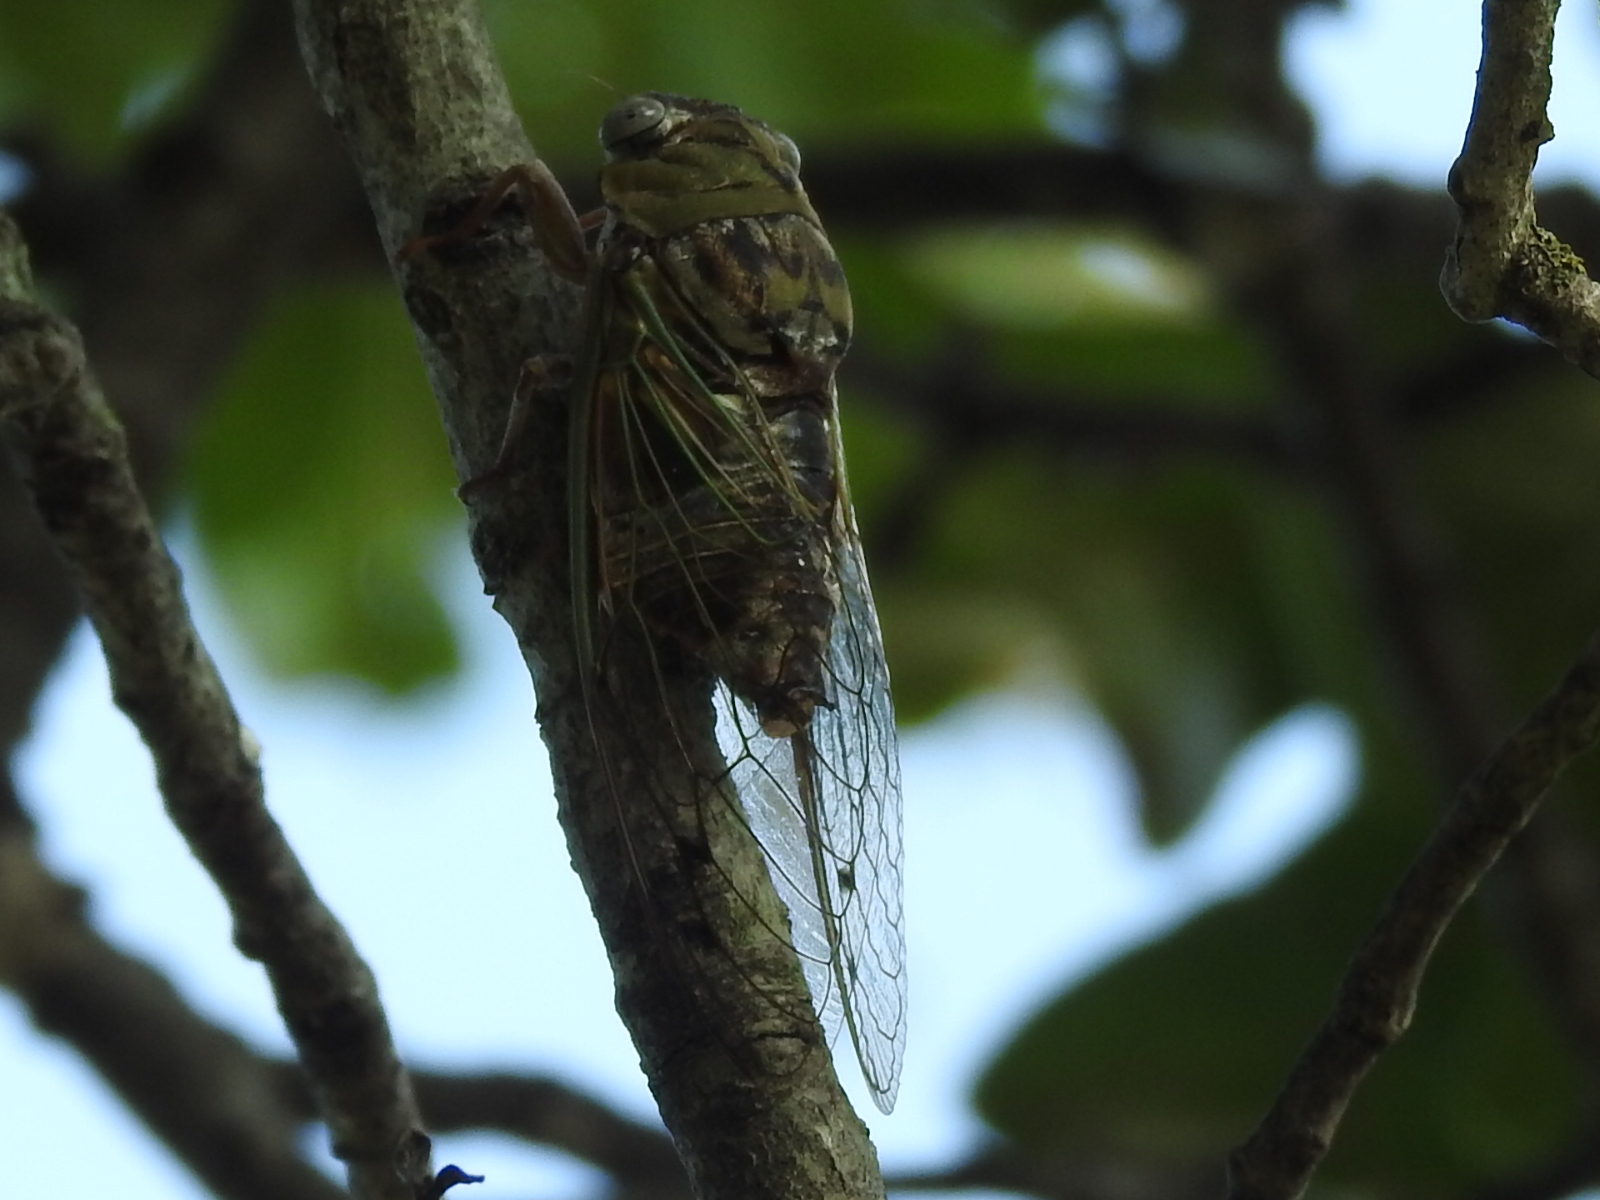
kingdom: Animalia
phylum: Arthropoda
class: Insecta
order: Hemiptera
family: Cicadidae
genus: Megatibicen
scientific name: Megatibicen resh
